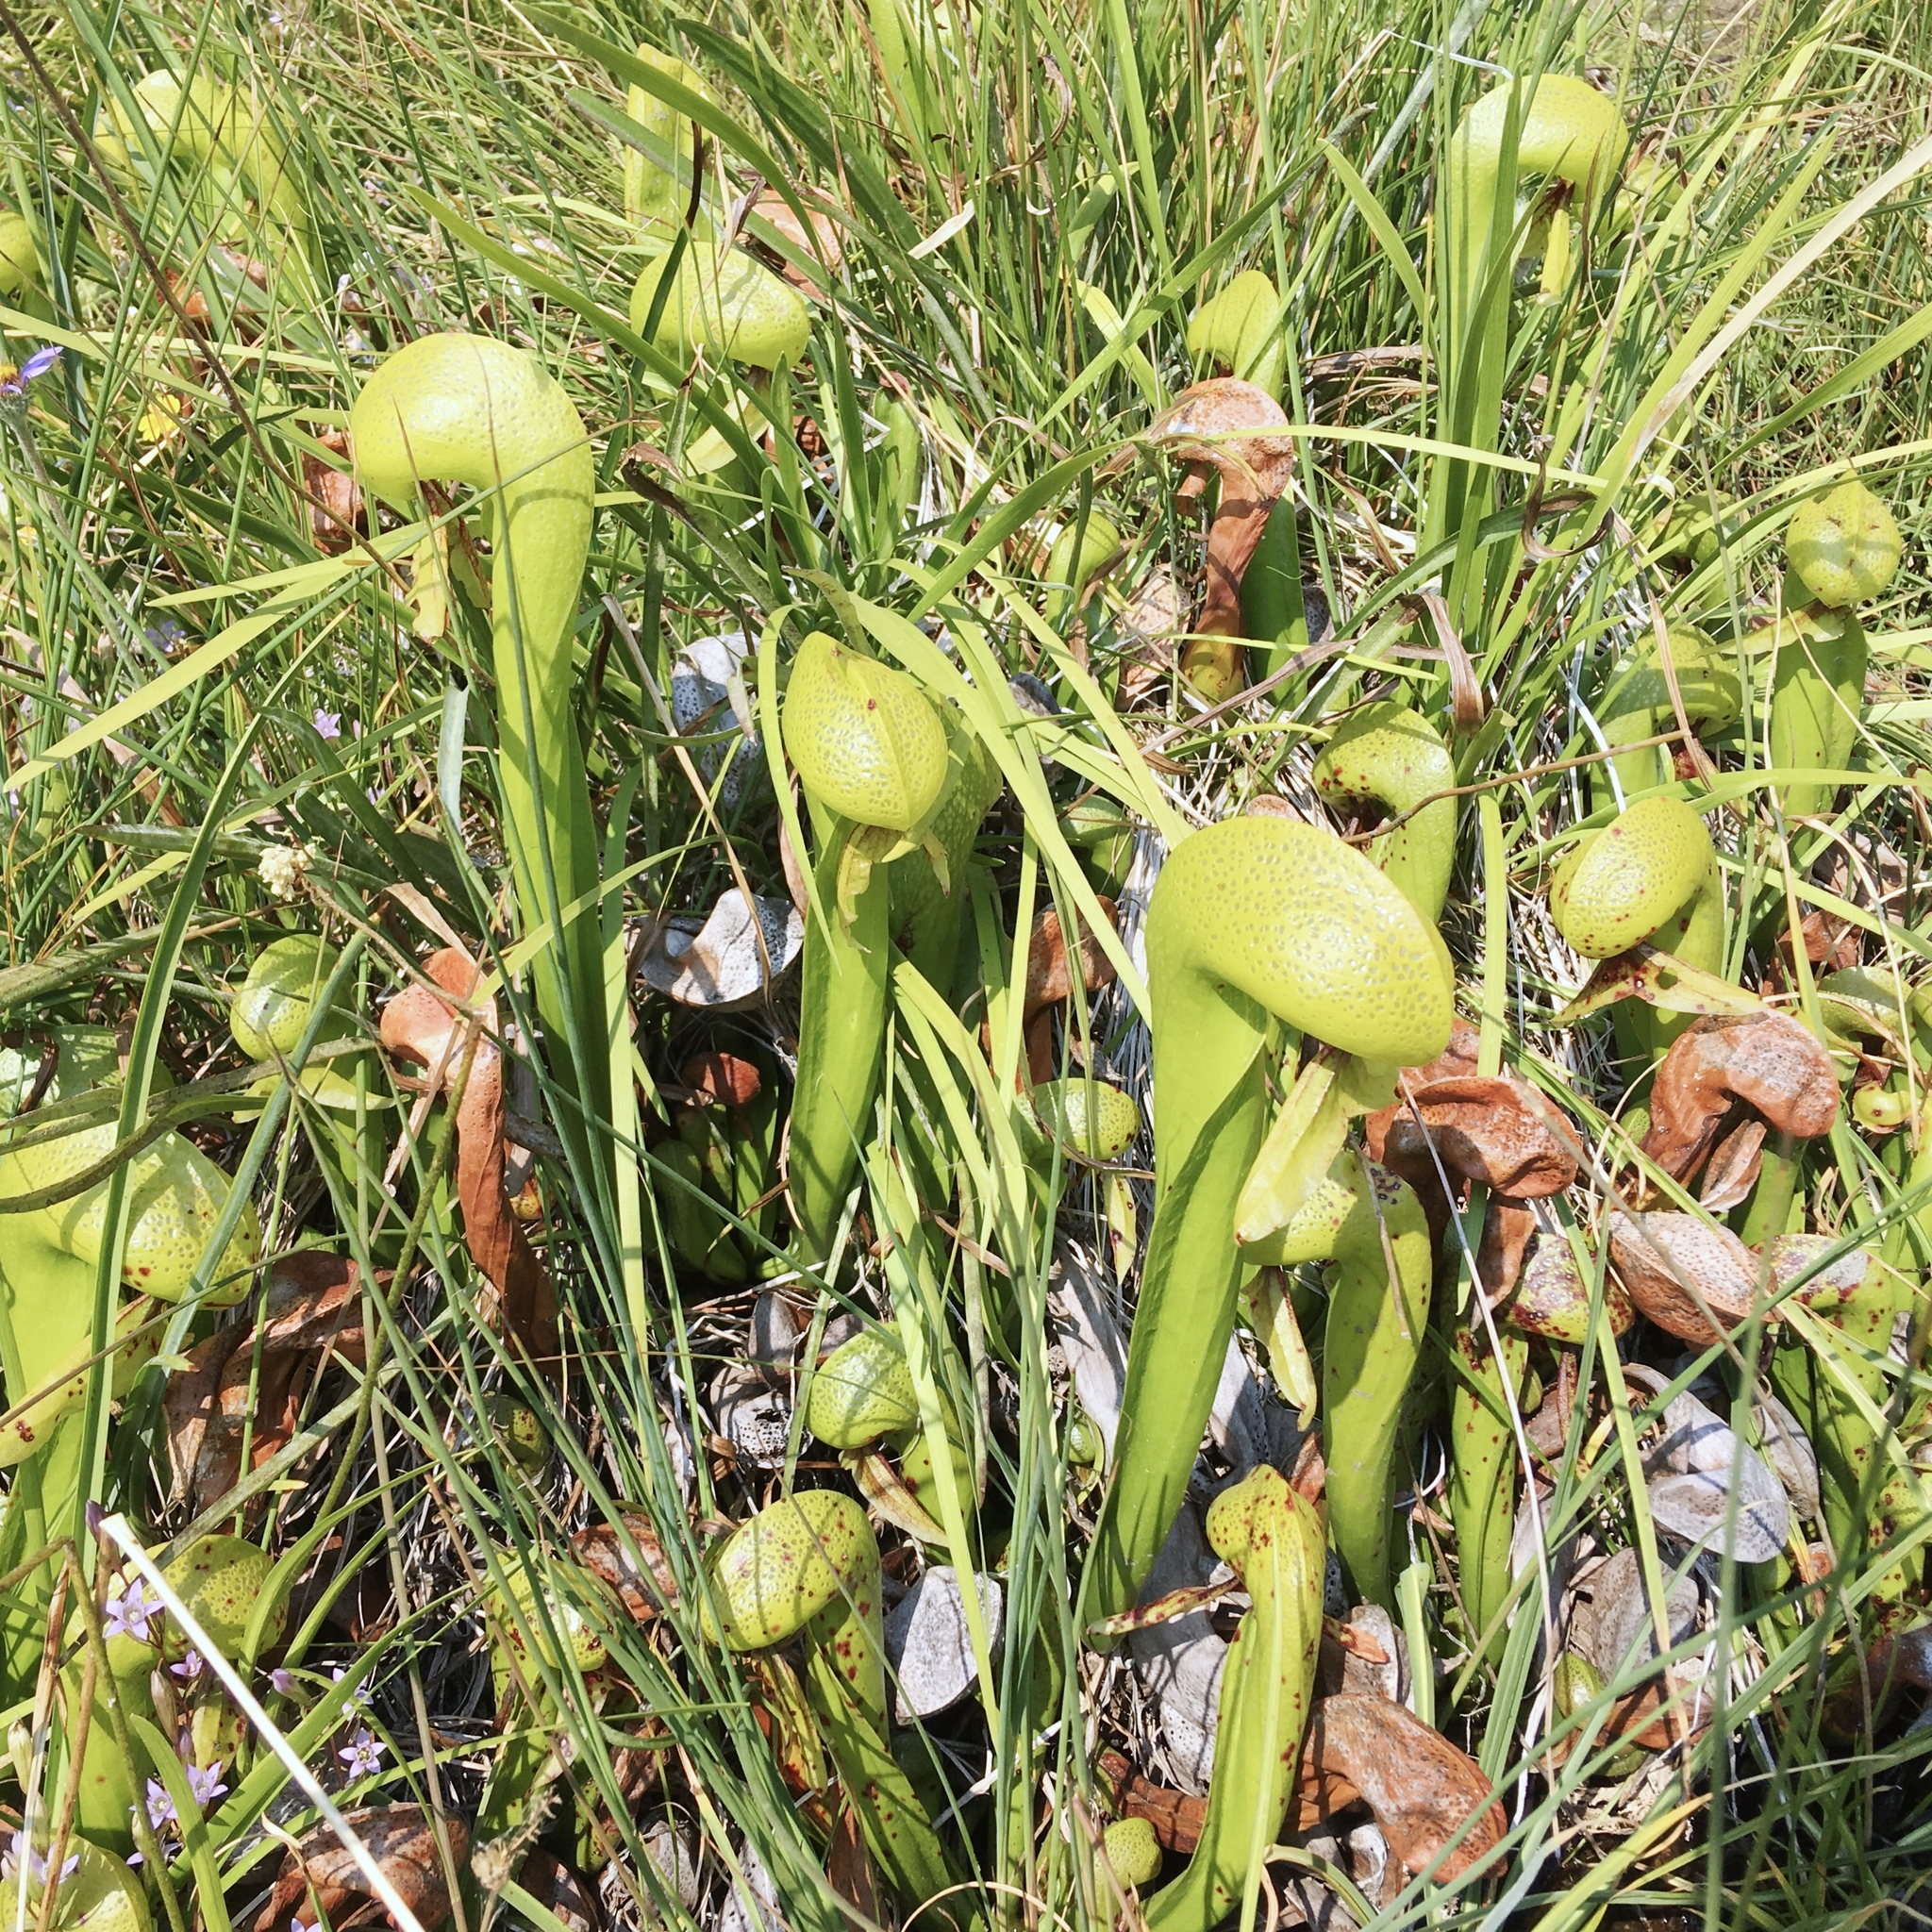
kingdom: Plantae
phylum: Tracheophyta
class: Magnoliopsida
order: Ericales
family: Sarraceniaceae
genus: Darlingtonia
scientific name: Darlingtonia californica
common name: California pitcher plant
